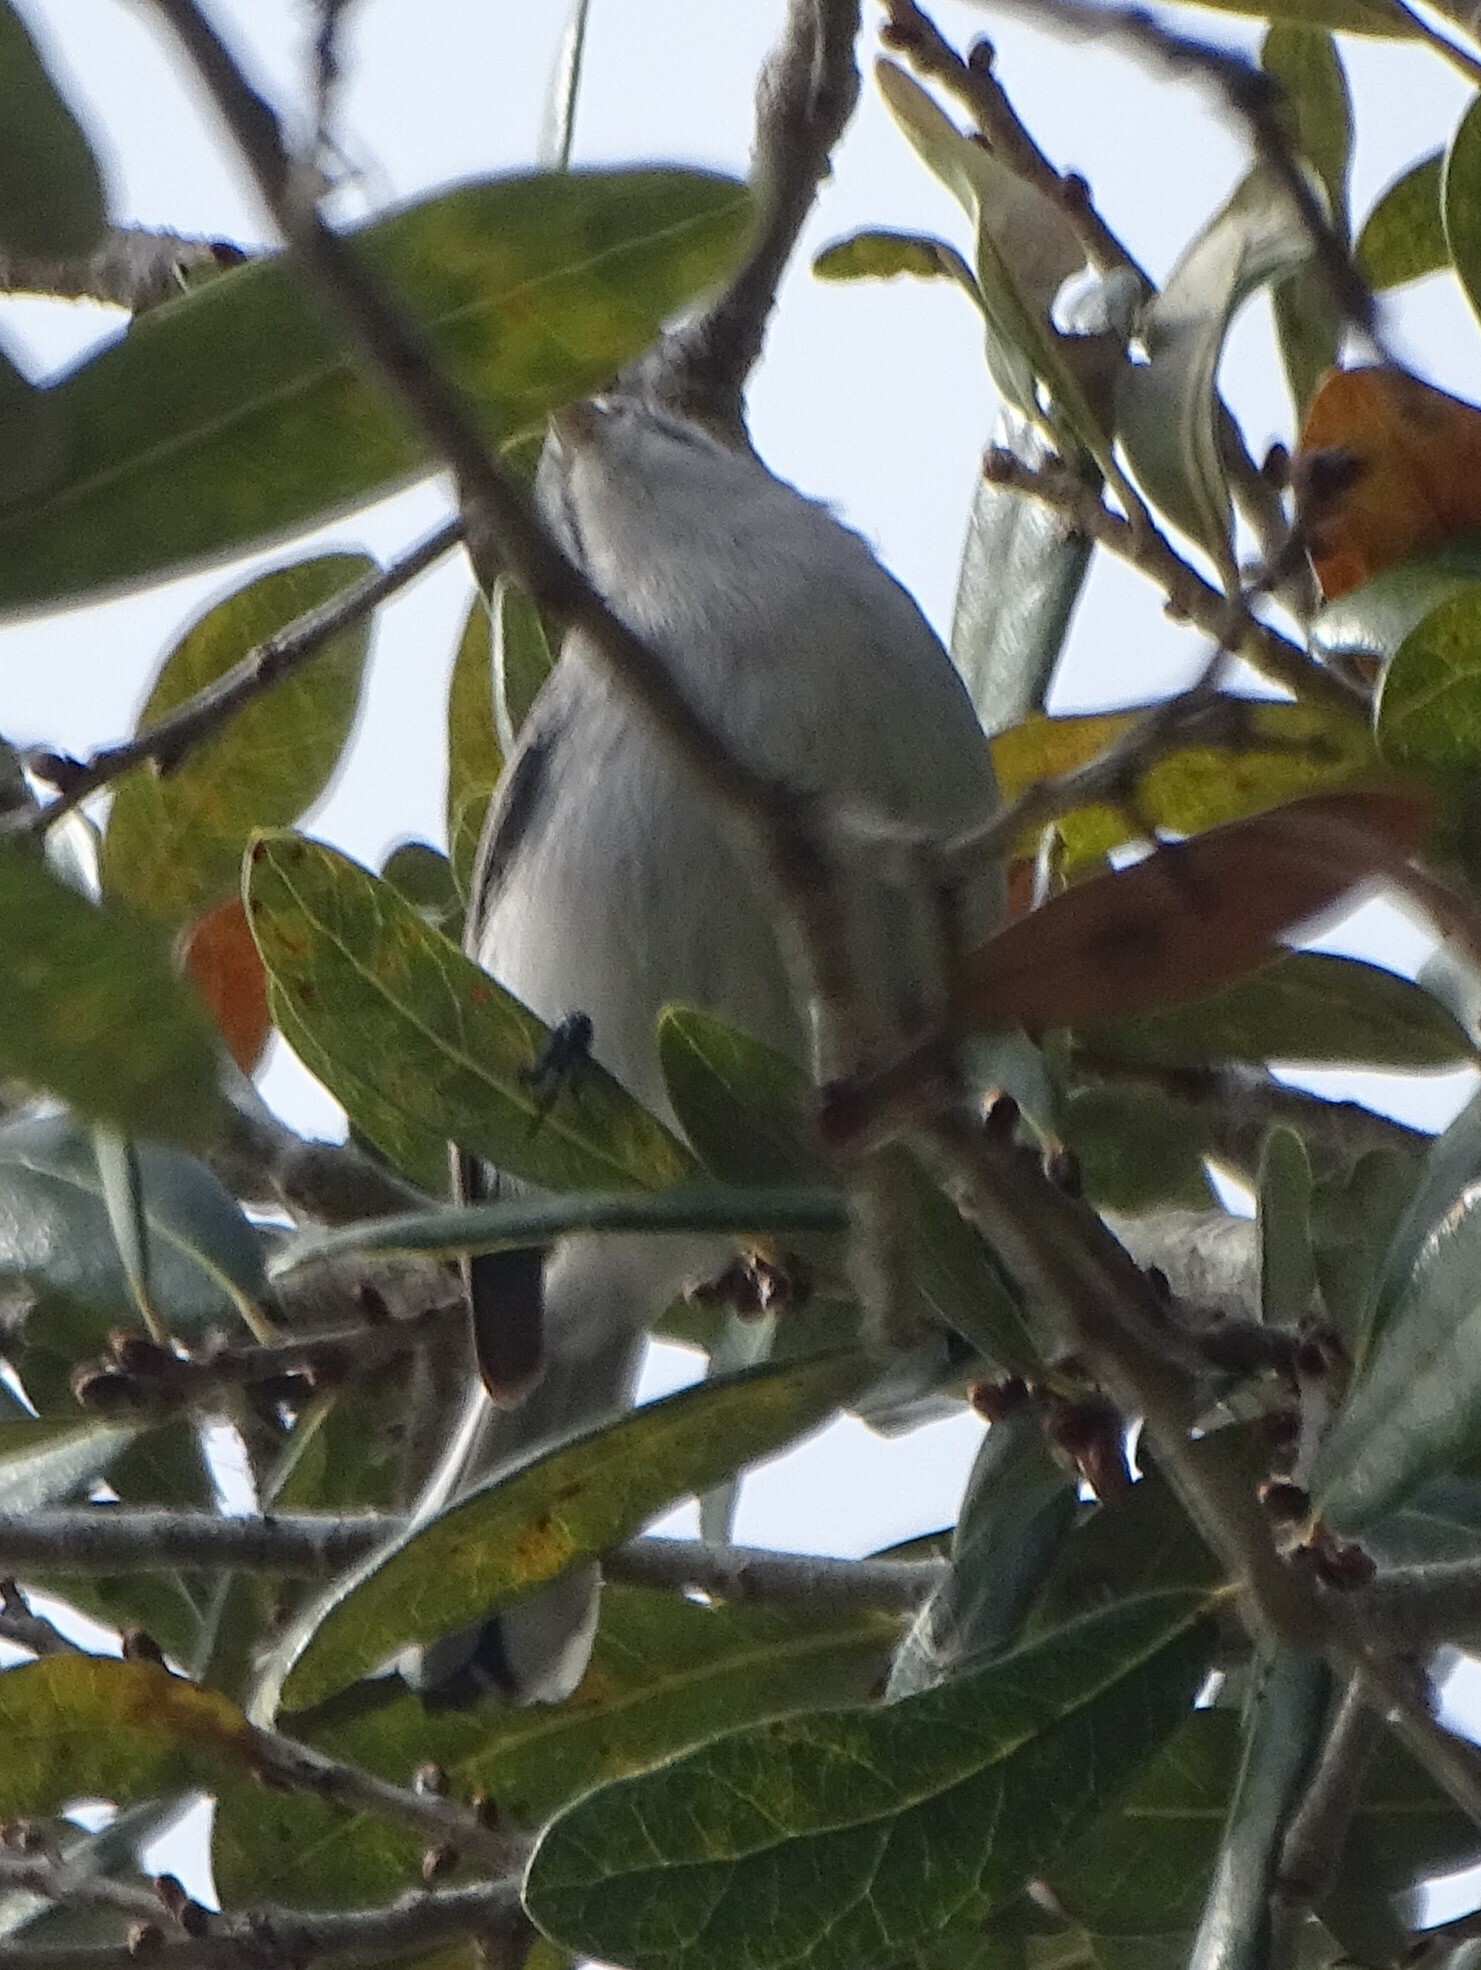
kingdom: Animalia
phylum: Chordata
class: Aves
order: Passeriformes
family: Polioptilidae
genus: Polioptila
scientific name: Polioptila caerulea
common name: Blue-gray gnatcatcher
